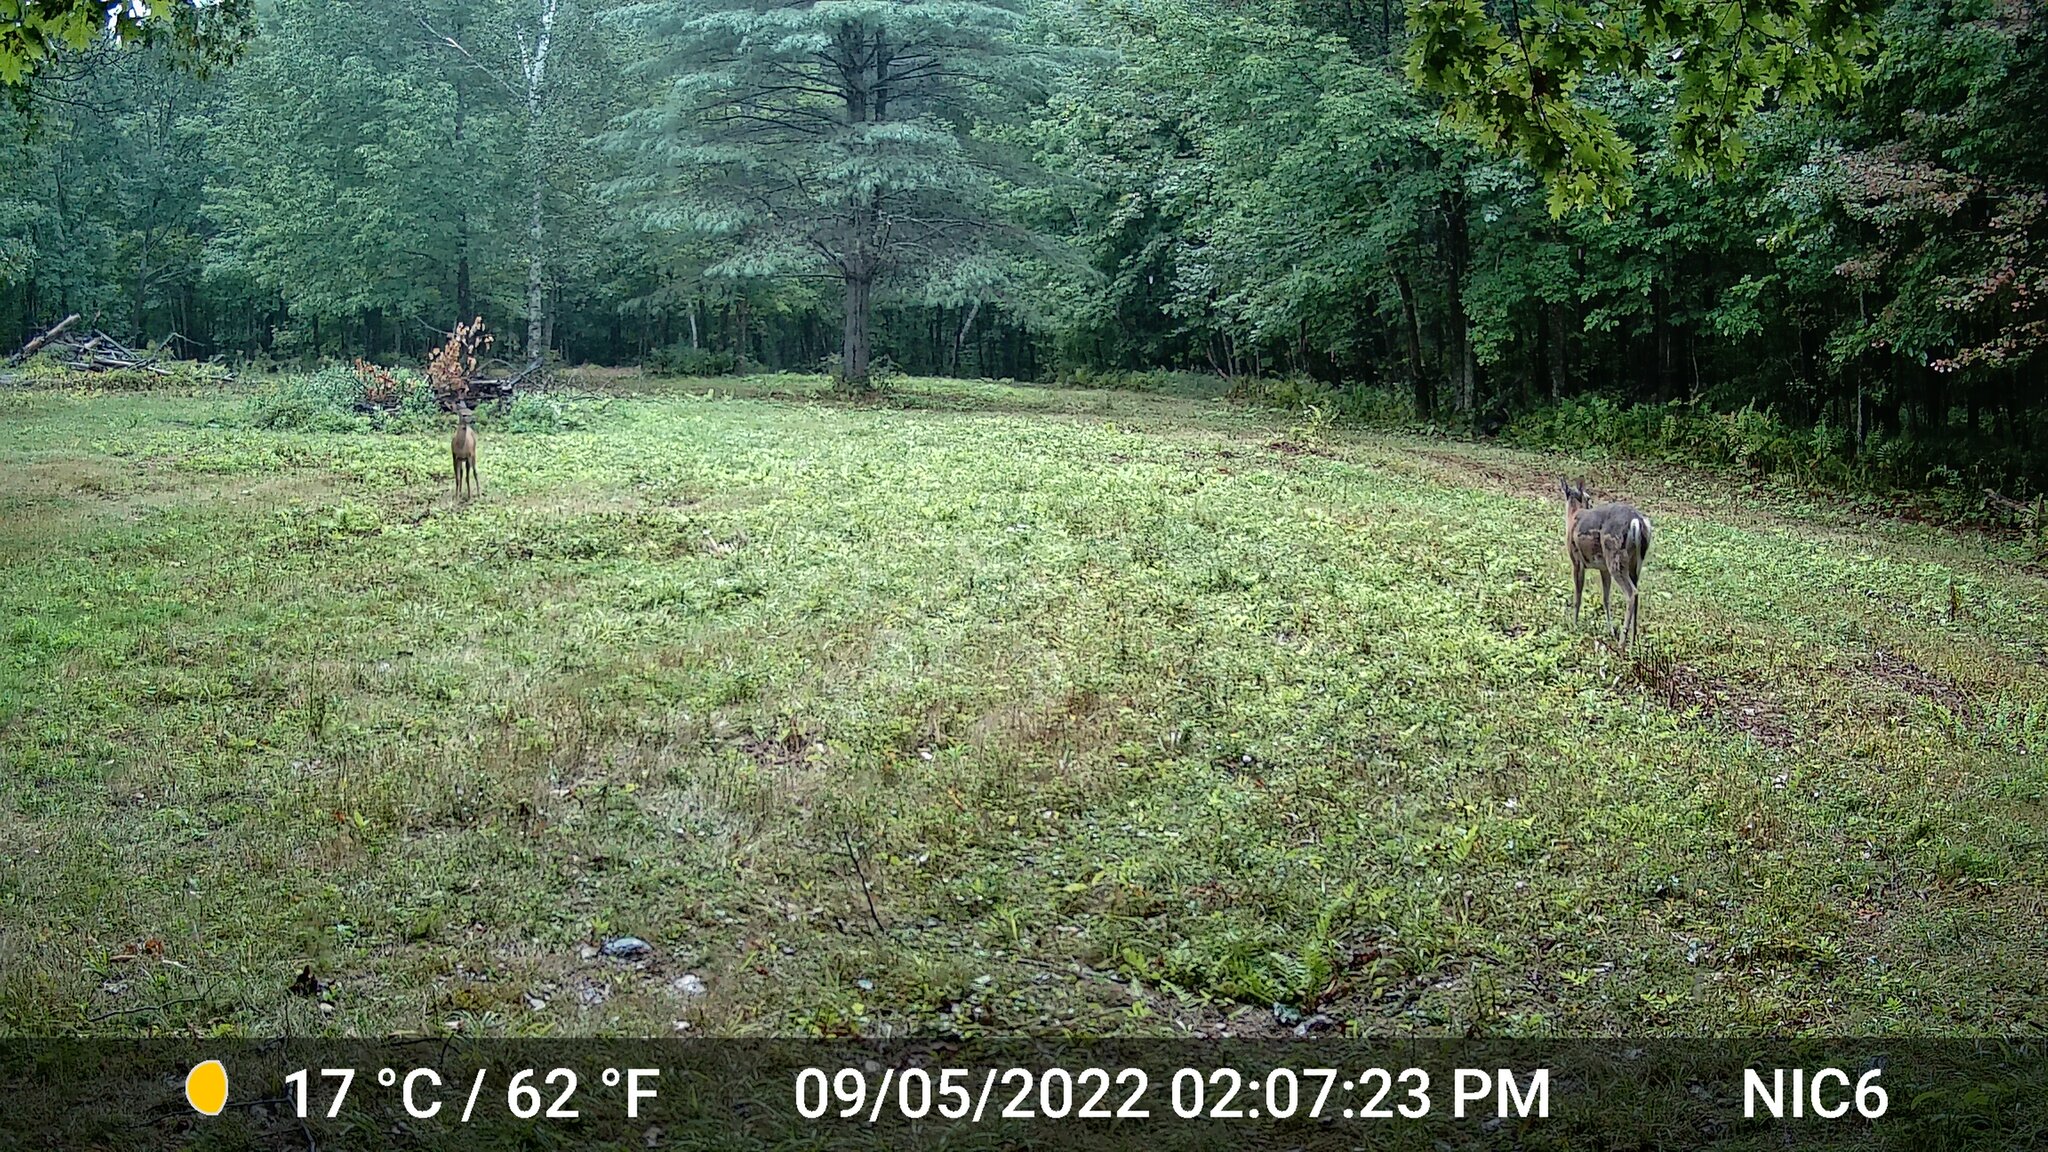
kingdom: Animalia
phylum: Chordata
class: Mammalia
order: Artiodactyla
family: Cervidae
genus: Odocoileus
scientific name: Odocoileus virginianus
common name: White-tailed deer
